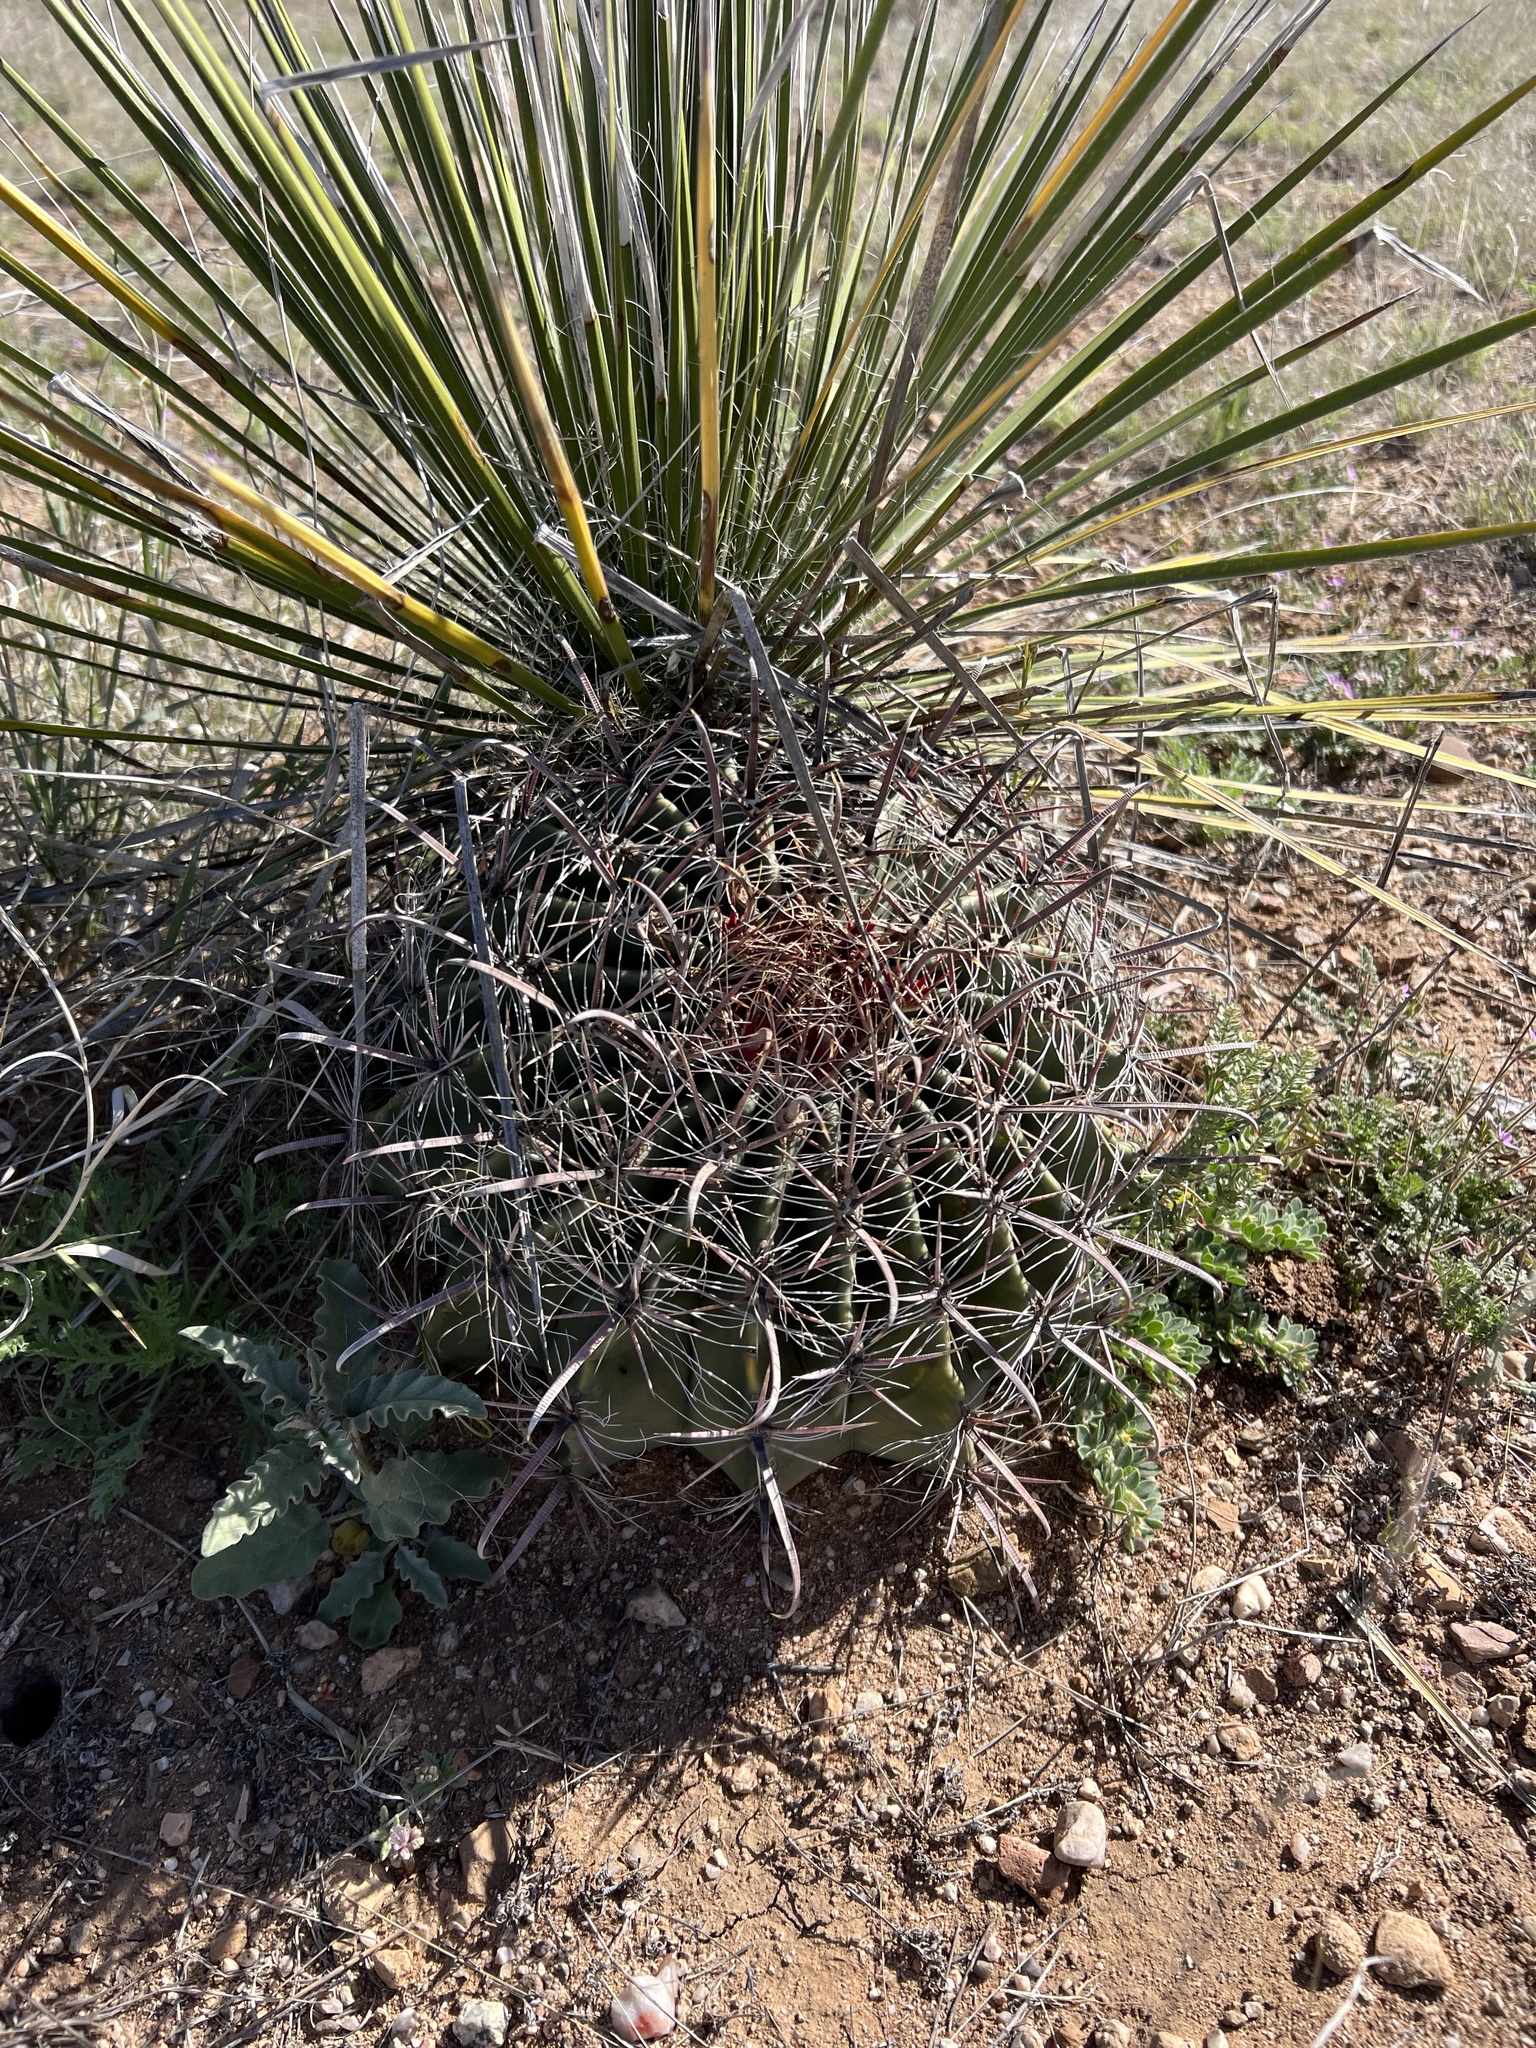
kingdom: Plantae
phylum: Tracheophyta
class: Magnoliopsida
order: Caryophyllales
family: Cactaceae
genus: Ferocactus
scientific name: Ferocactus wislizeni
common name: Candy barrel cactus
